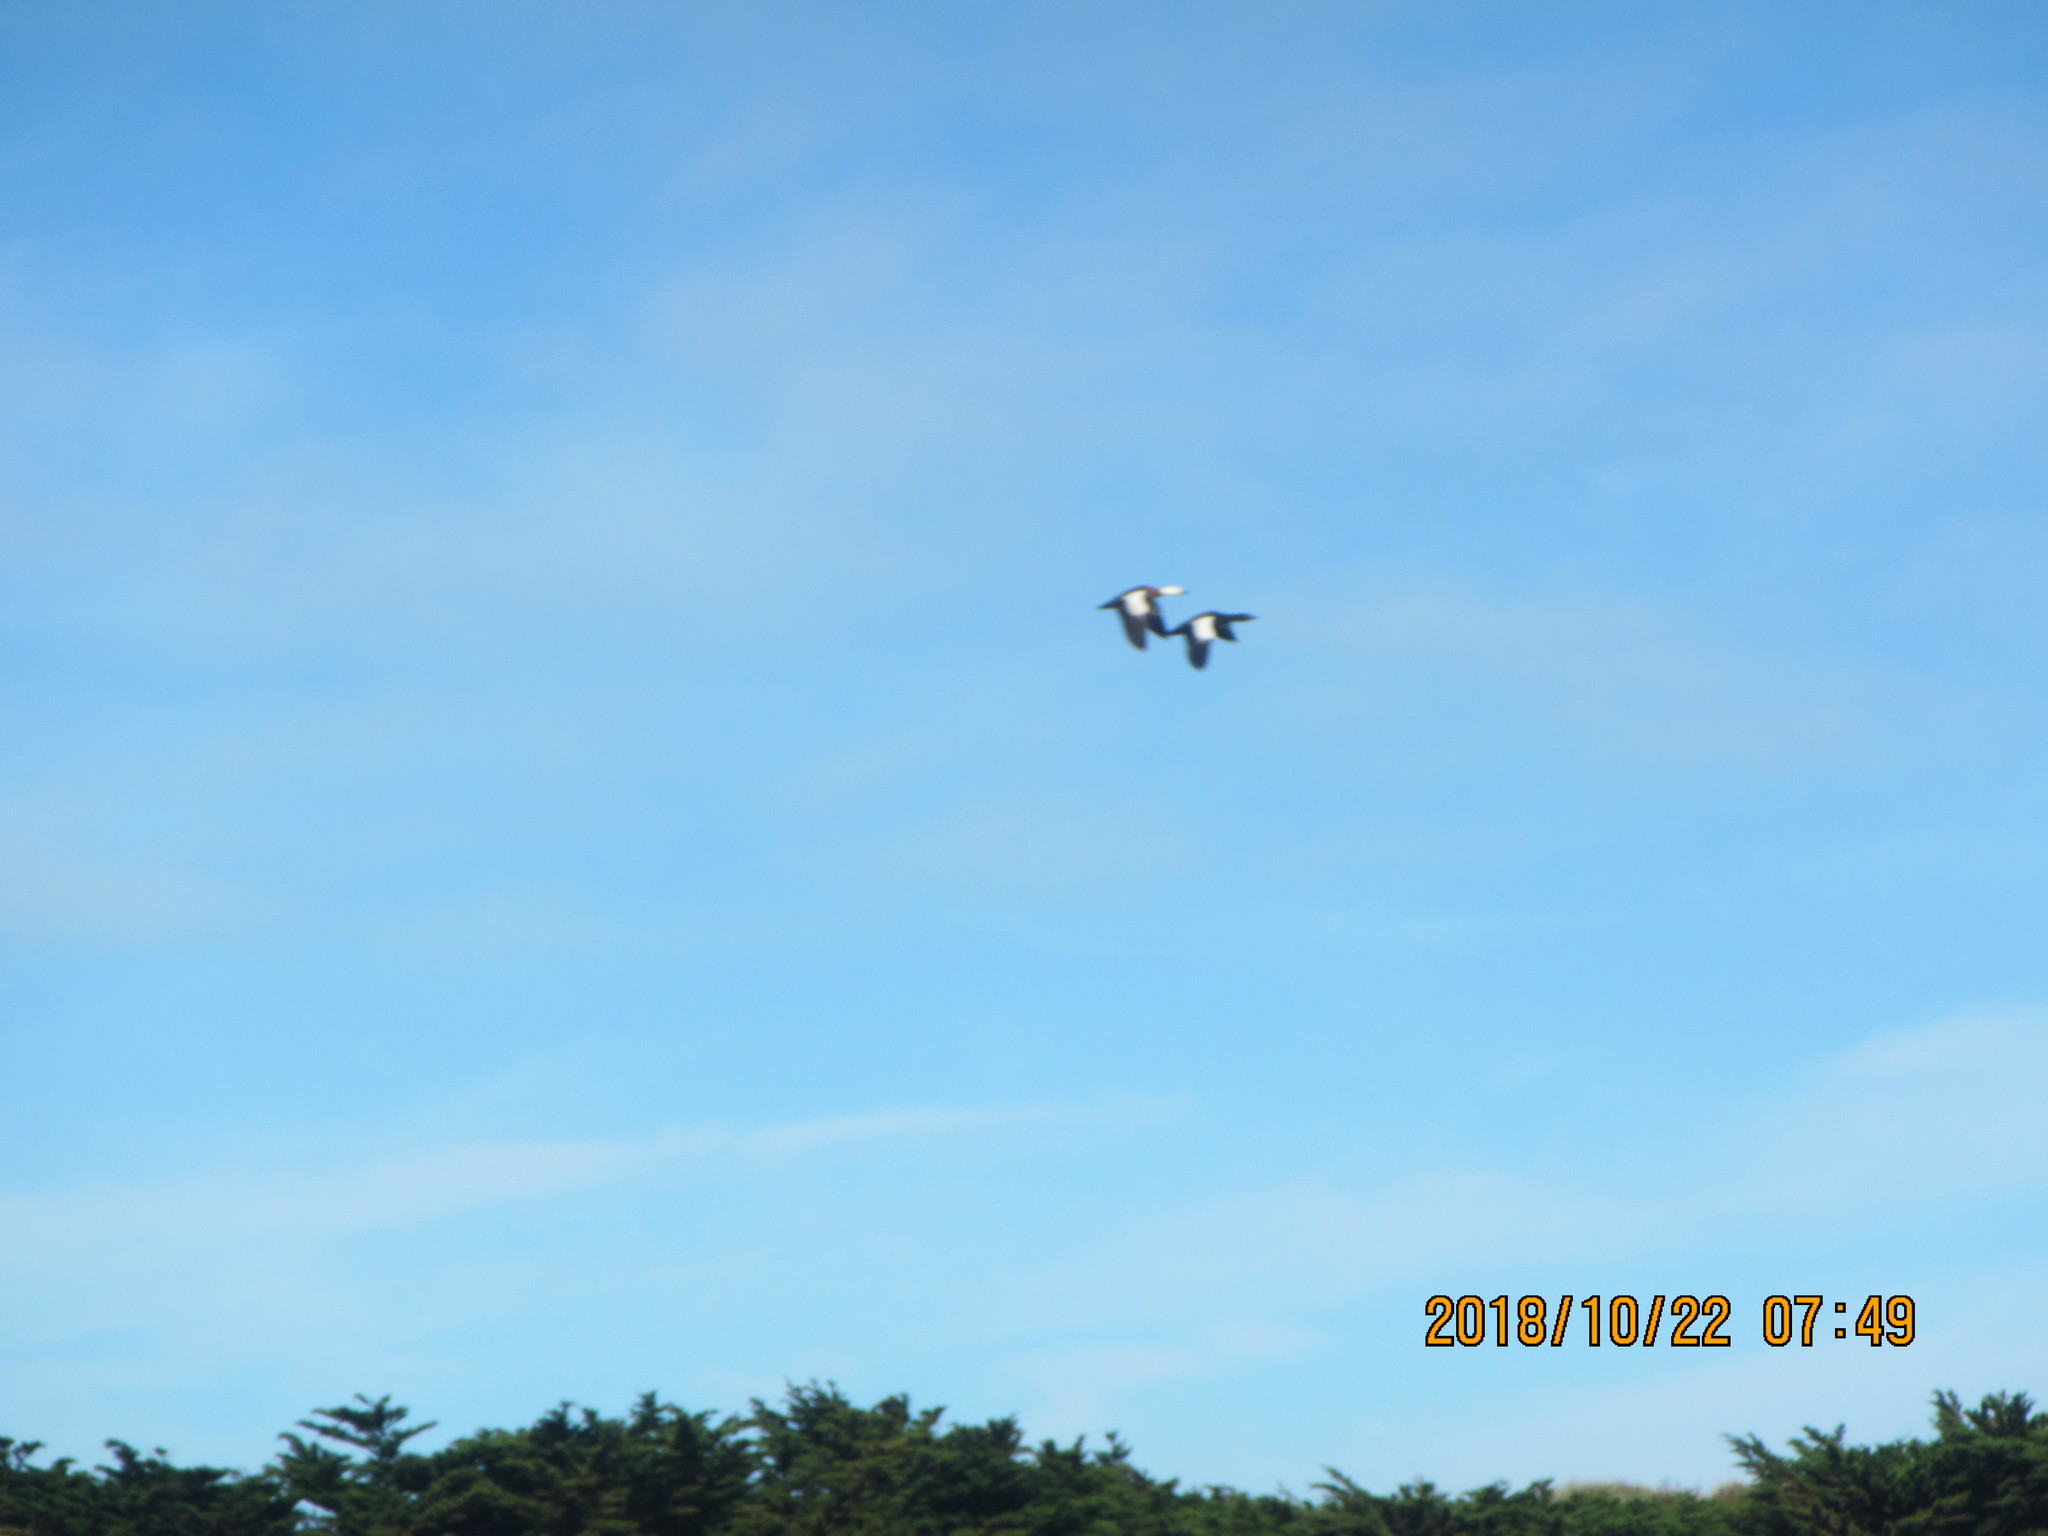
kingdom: Animalia
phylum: Chordata
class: Aves
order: Anseriformes
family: Anatidae
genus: Tadorna
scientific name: Tadorna variegata
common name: Paradise shelduck
